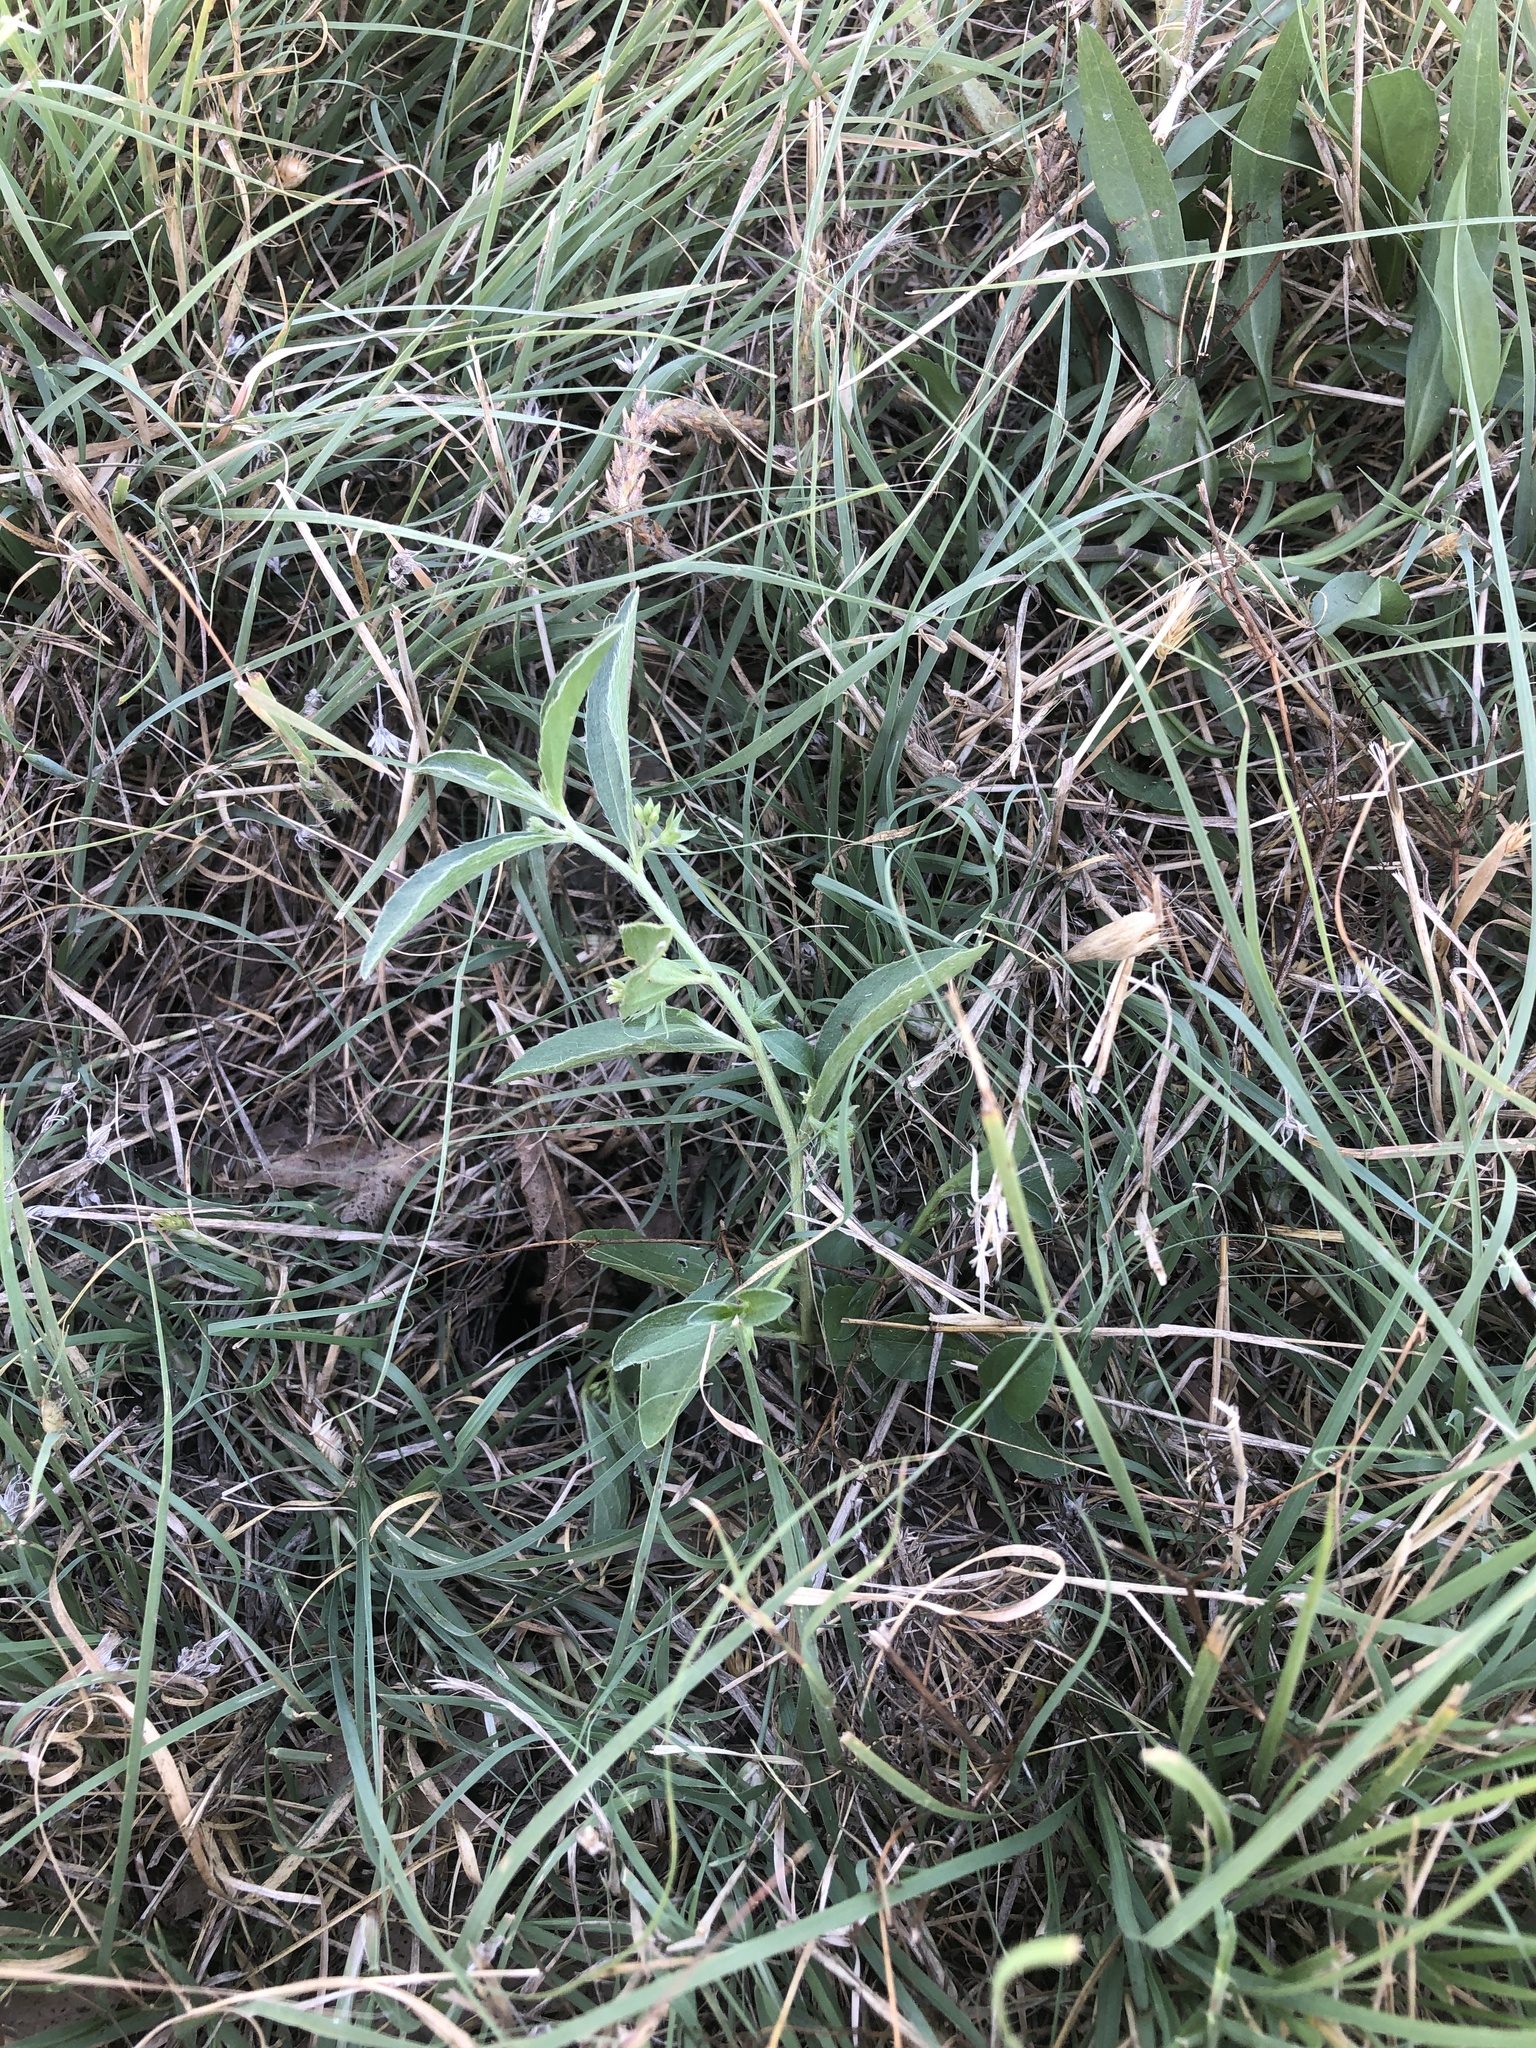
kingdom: Plantae
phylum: Tracheophyta
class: Magnoliopsida
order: Malpighiales
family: Euphorbiaceae
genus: Ditaxis
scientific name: Ditaxis humilis
